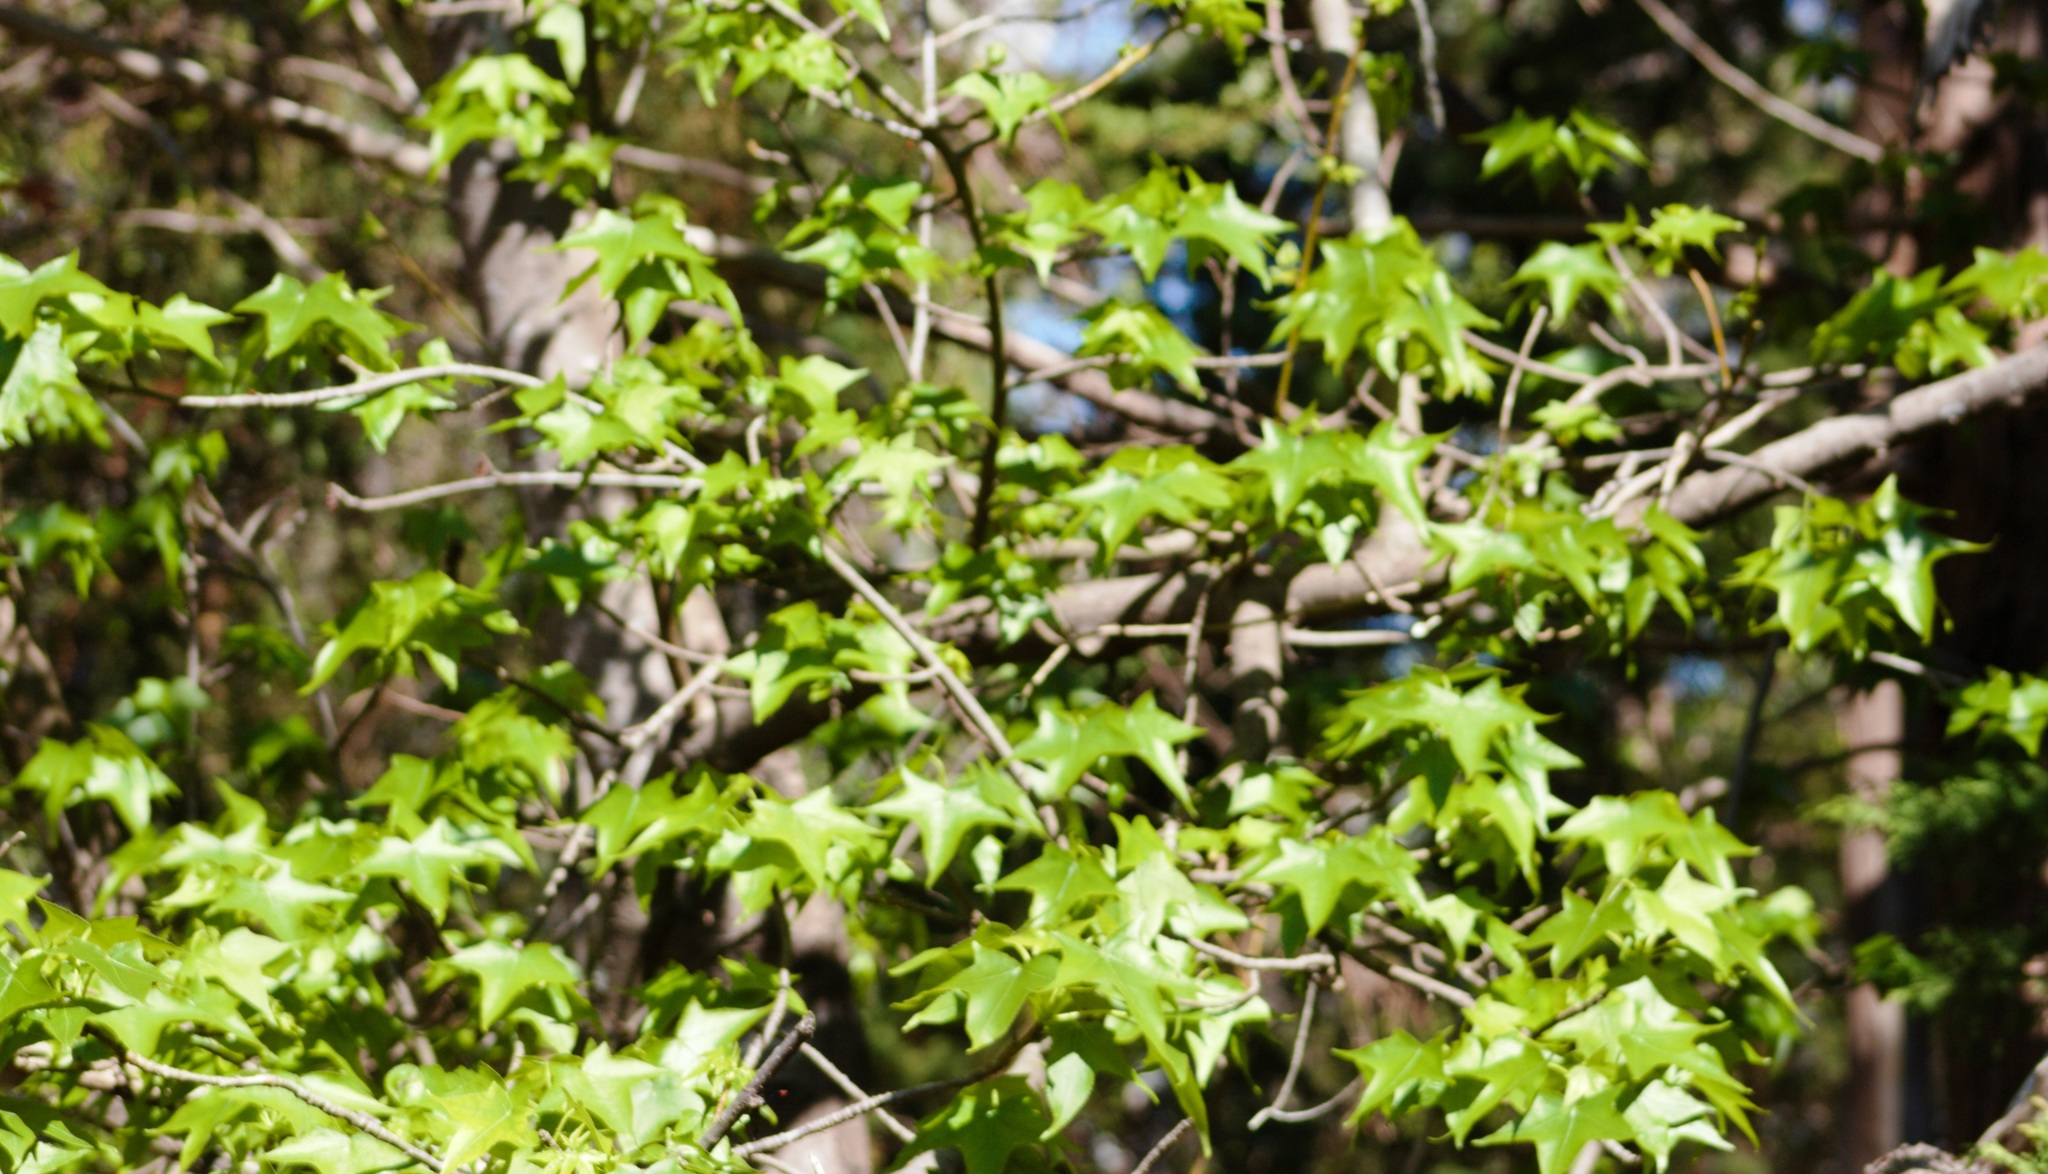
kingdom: Plantae
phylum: Tracheophyta
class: Magnoliopsida
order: Saxifragales
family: Altingiaceae
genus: Liquidambar
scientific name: Liquidambar styraciflua
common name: Sweet gum
